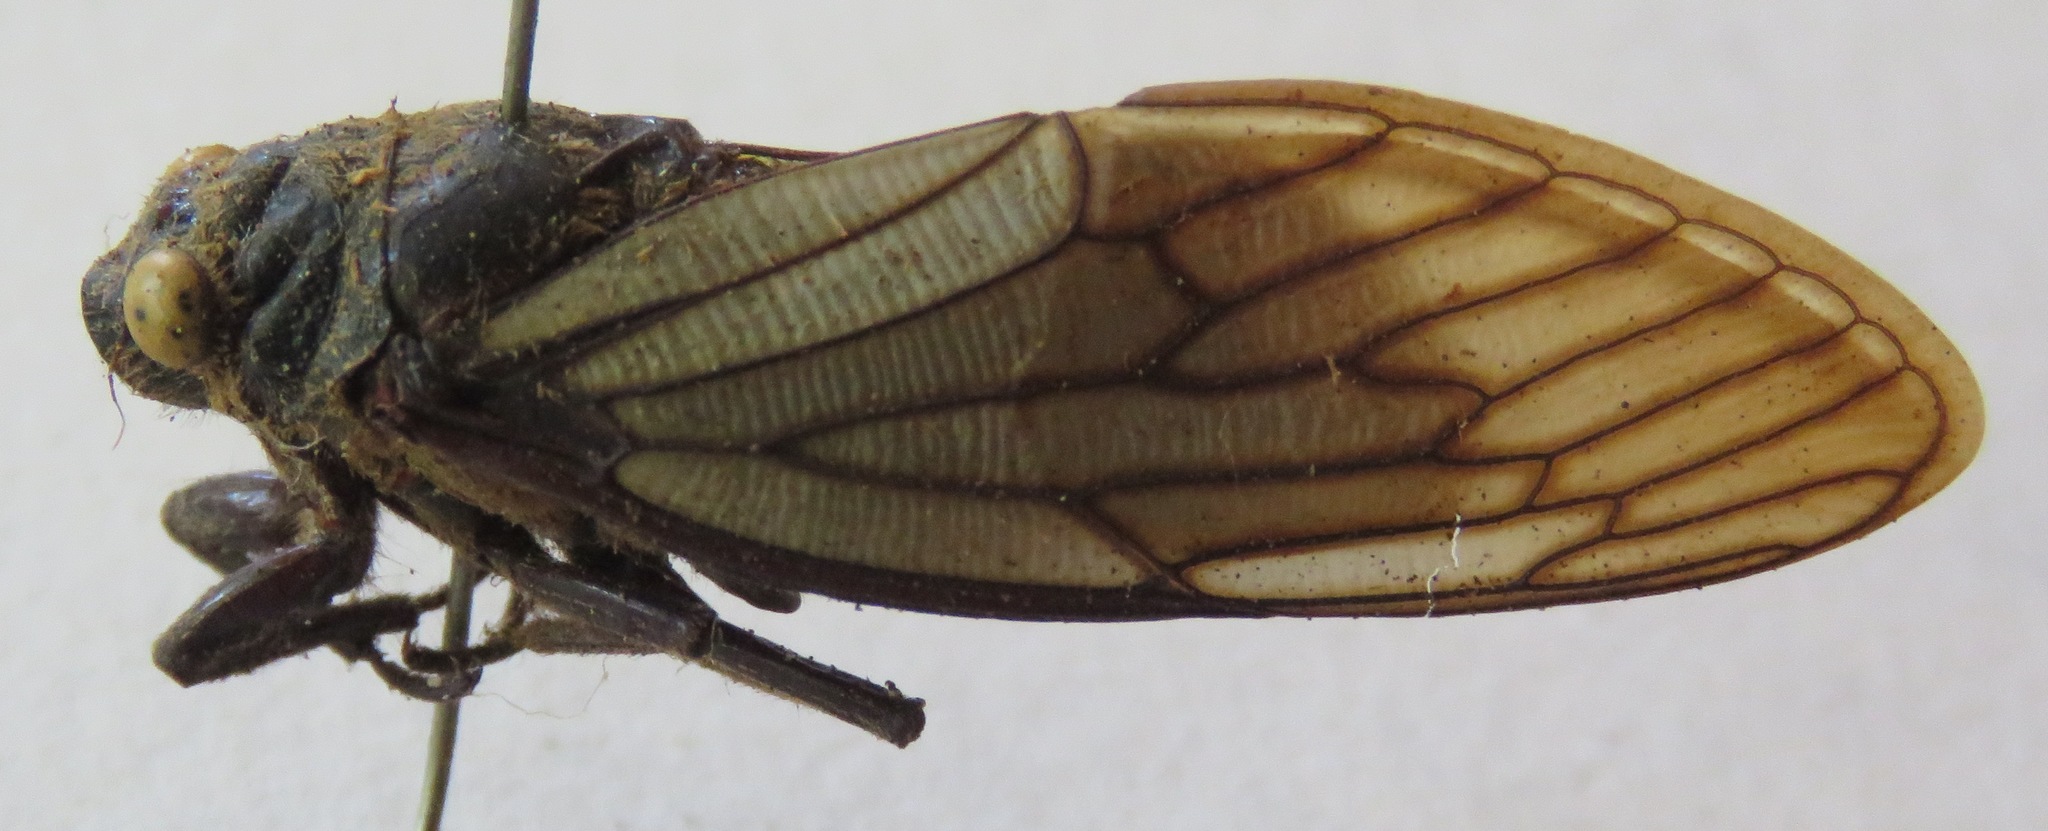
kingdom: Animalia
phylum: Arthropoda
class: Insecta
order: Hemiptera
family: Cicadidae
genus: Huechys
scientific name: Huechys testacea
